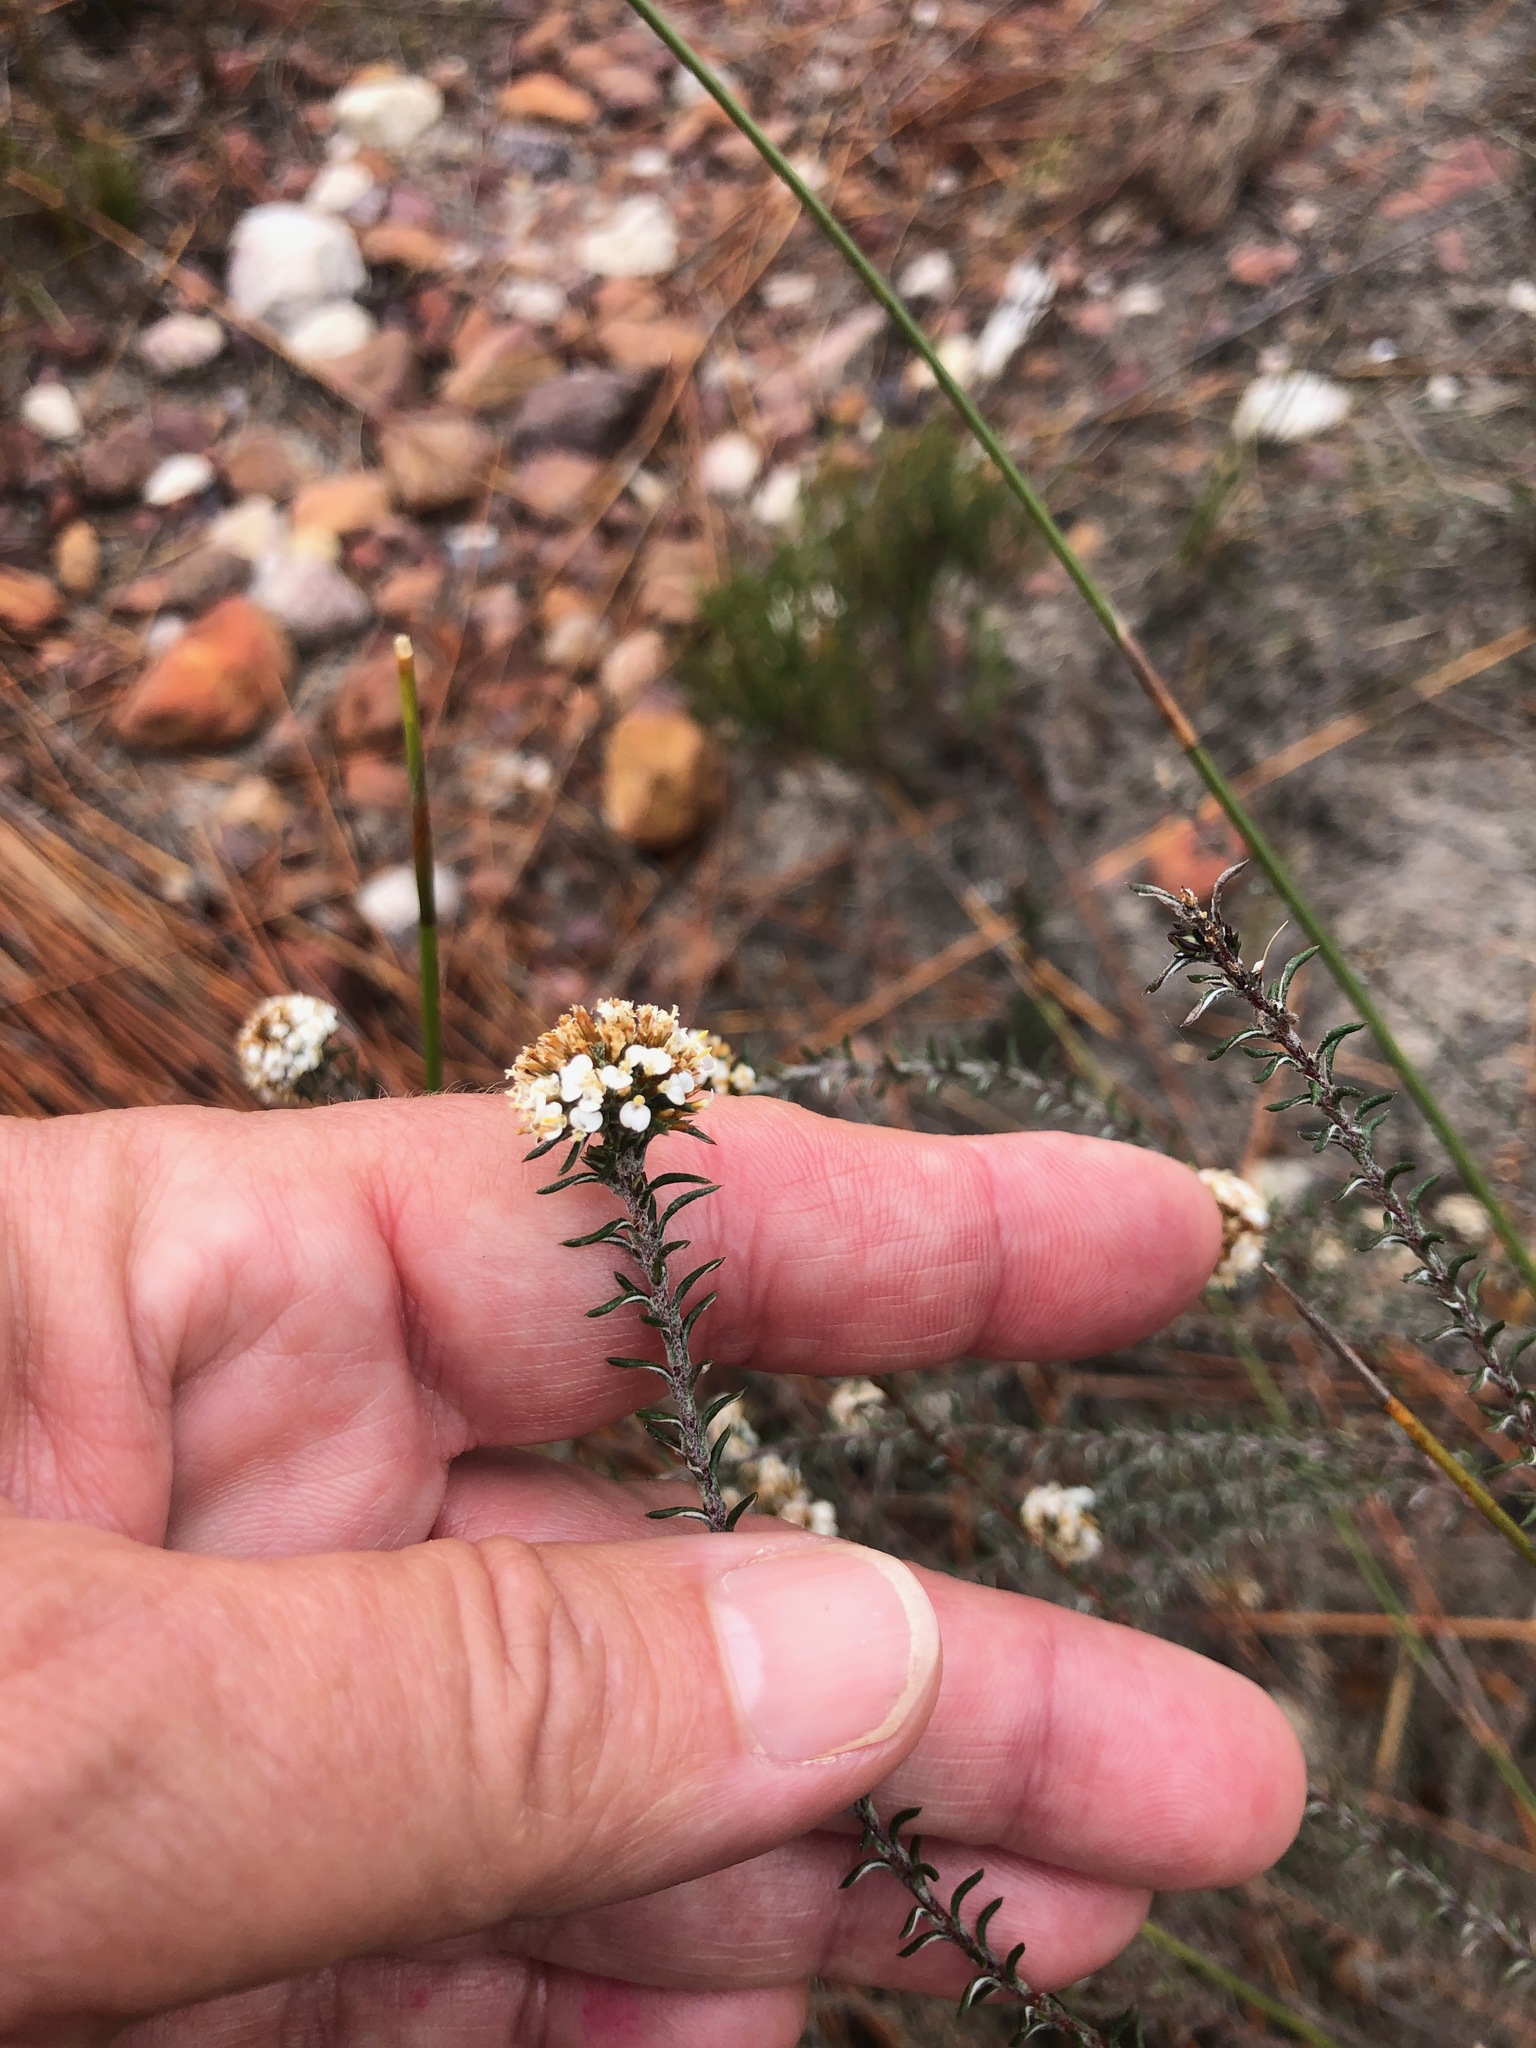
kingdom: Plantae
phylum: Tracheophyta
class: Magnoliopsida
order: Asterales
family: Asteraceae
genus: Disparago
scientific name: Disparago anomala
